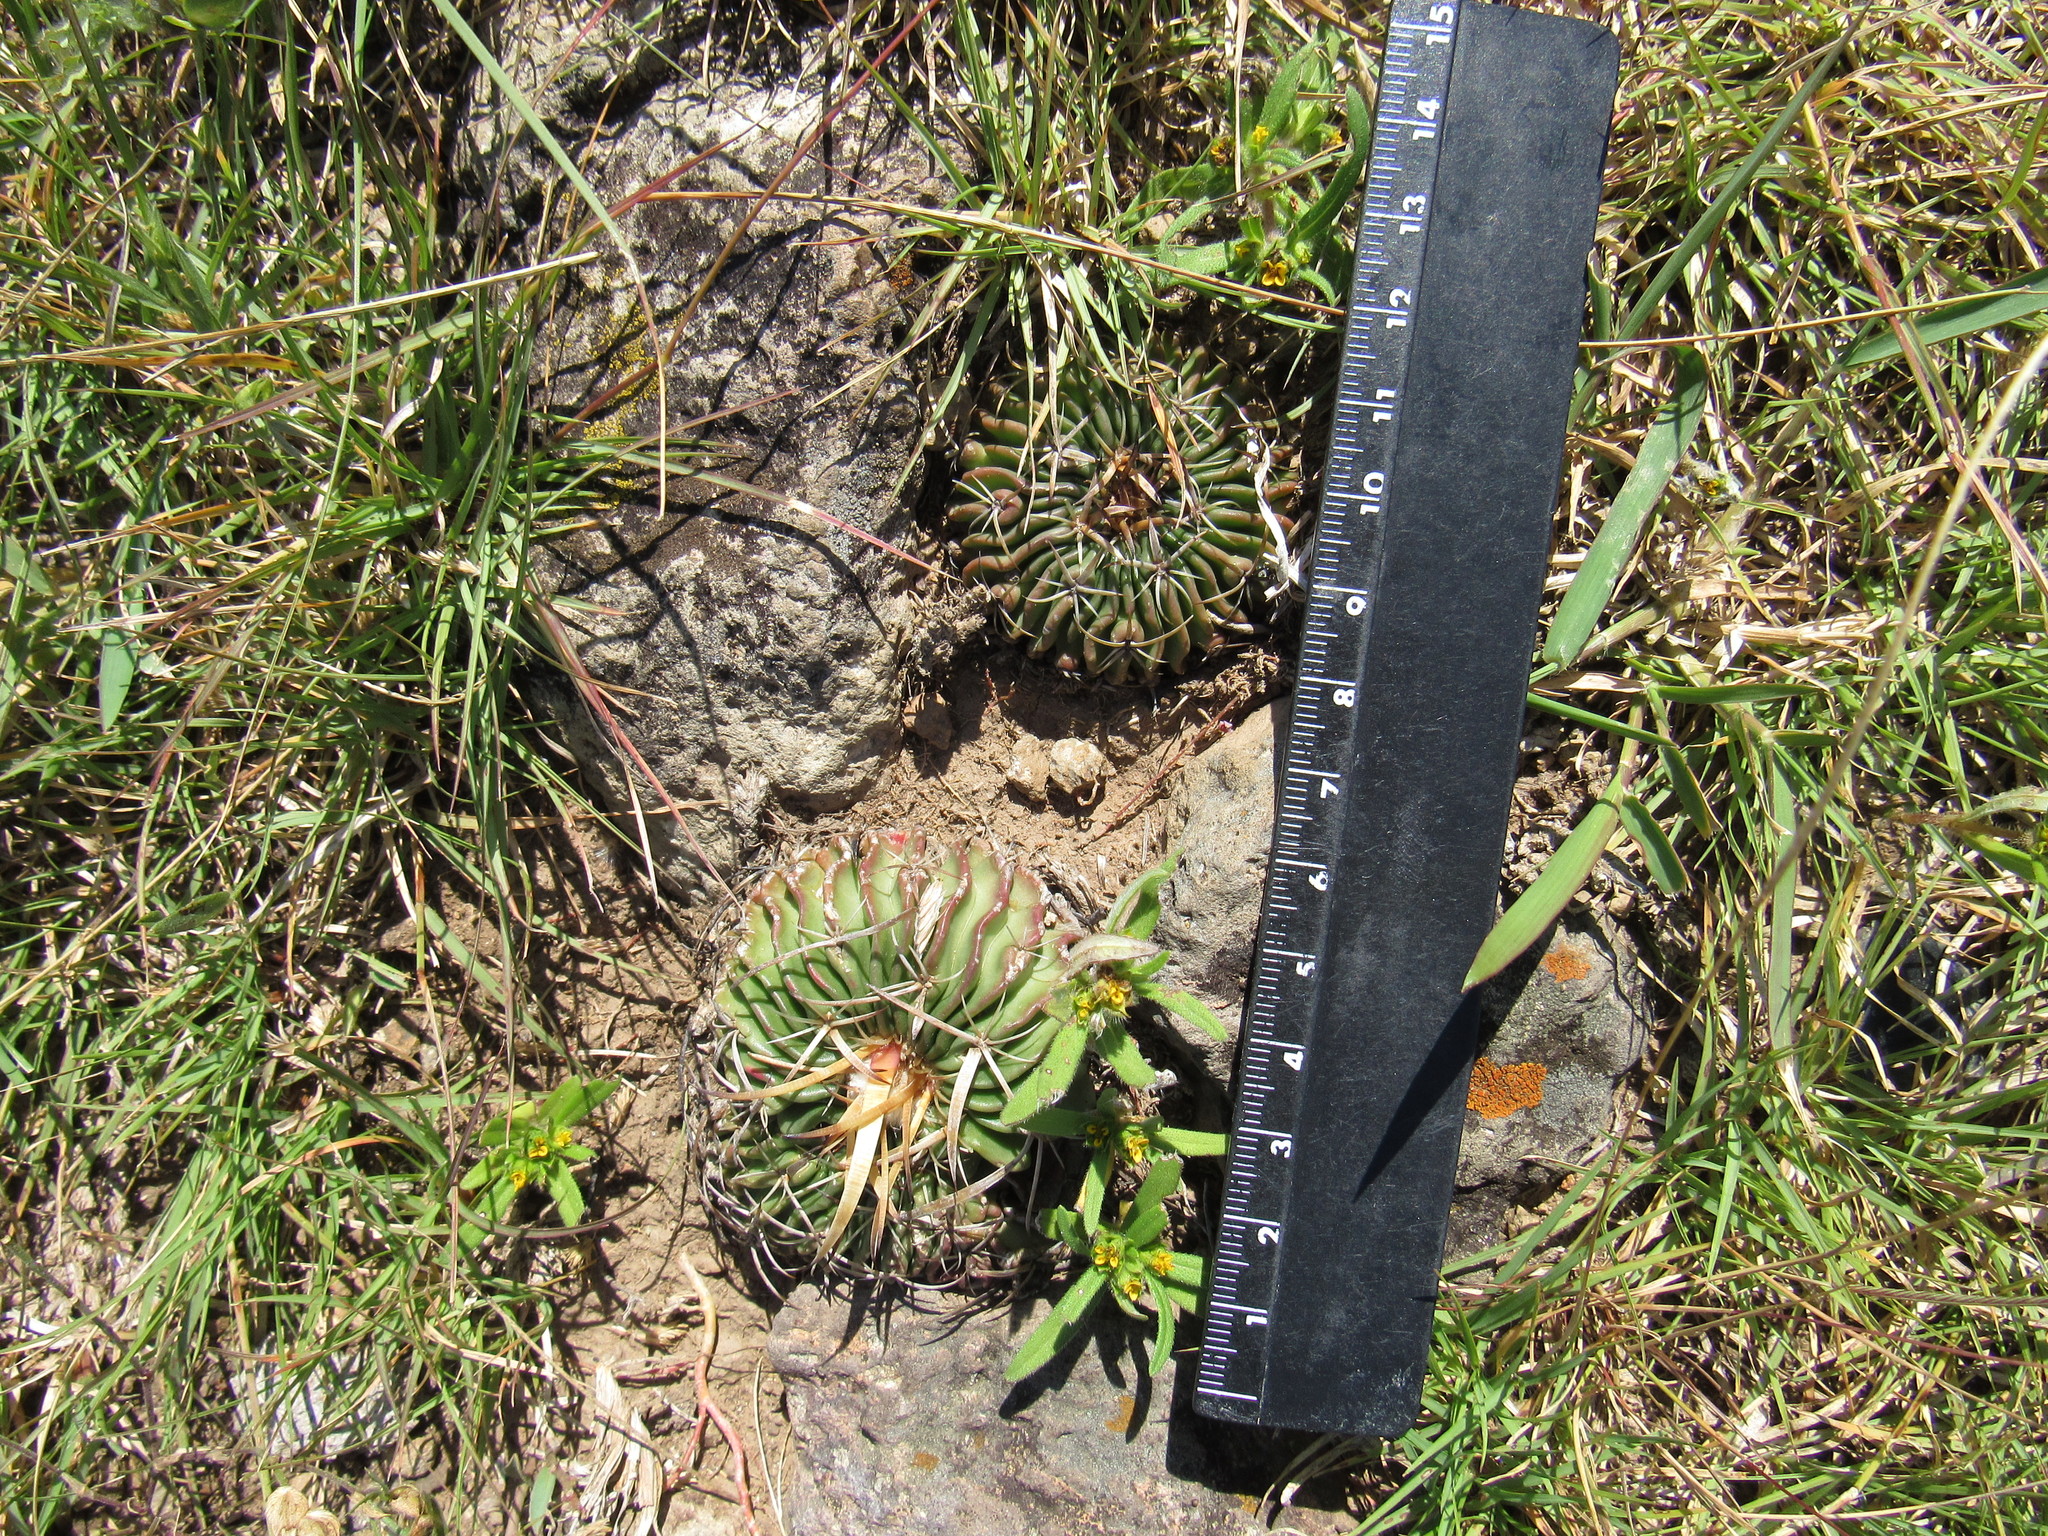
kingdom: Plantae
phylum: Tracheophyta
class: Magnoliopsida
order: Caryophyllales
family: Cactaceae
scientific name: Cactaceae
